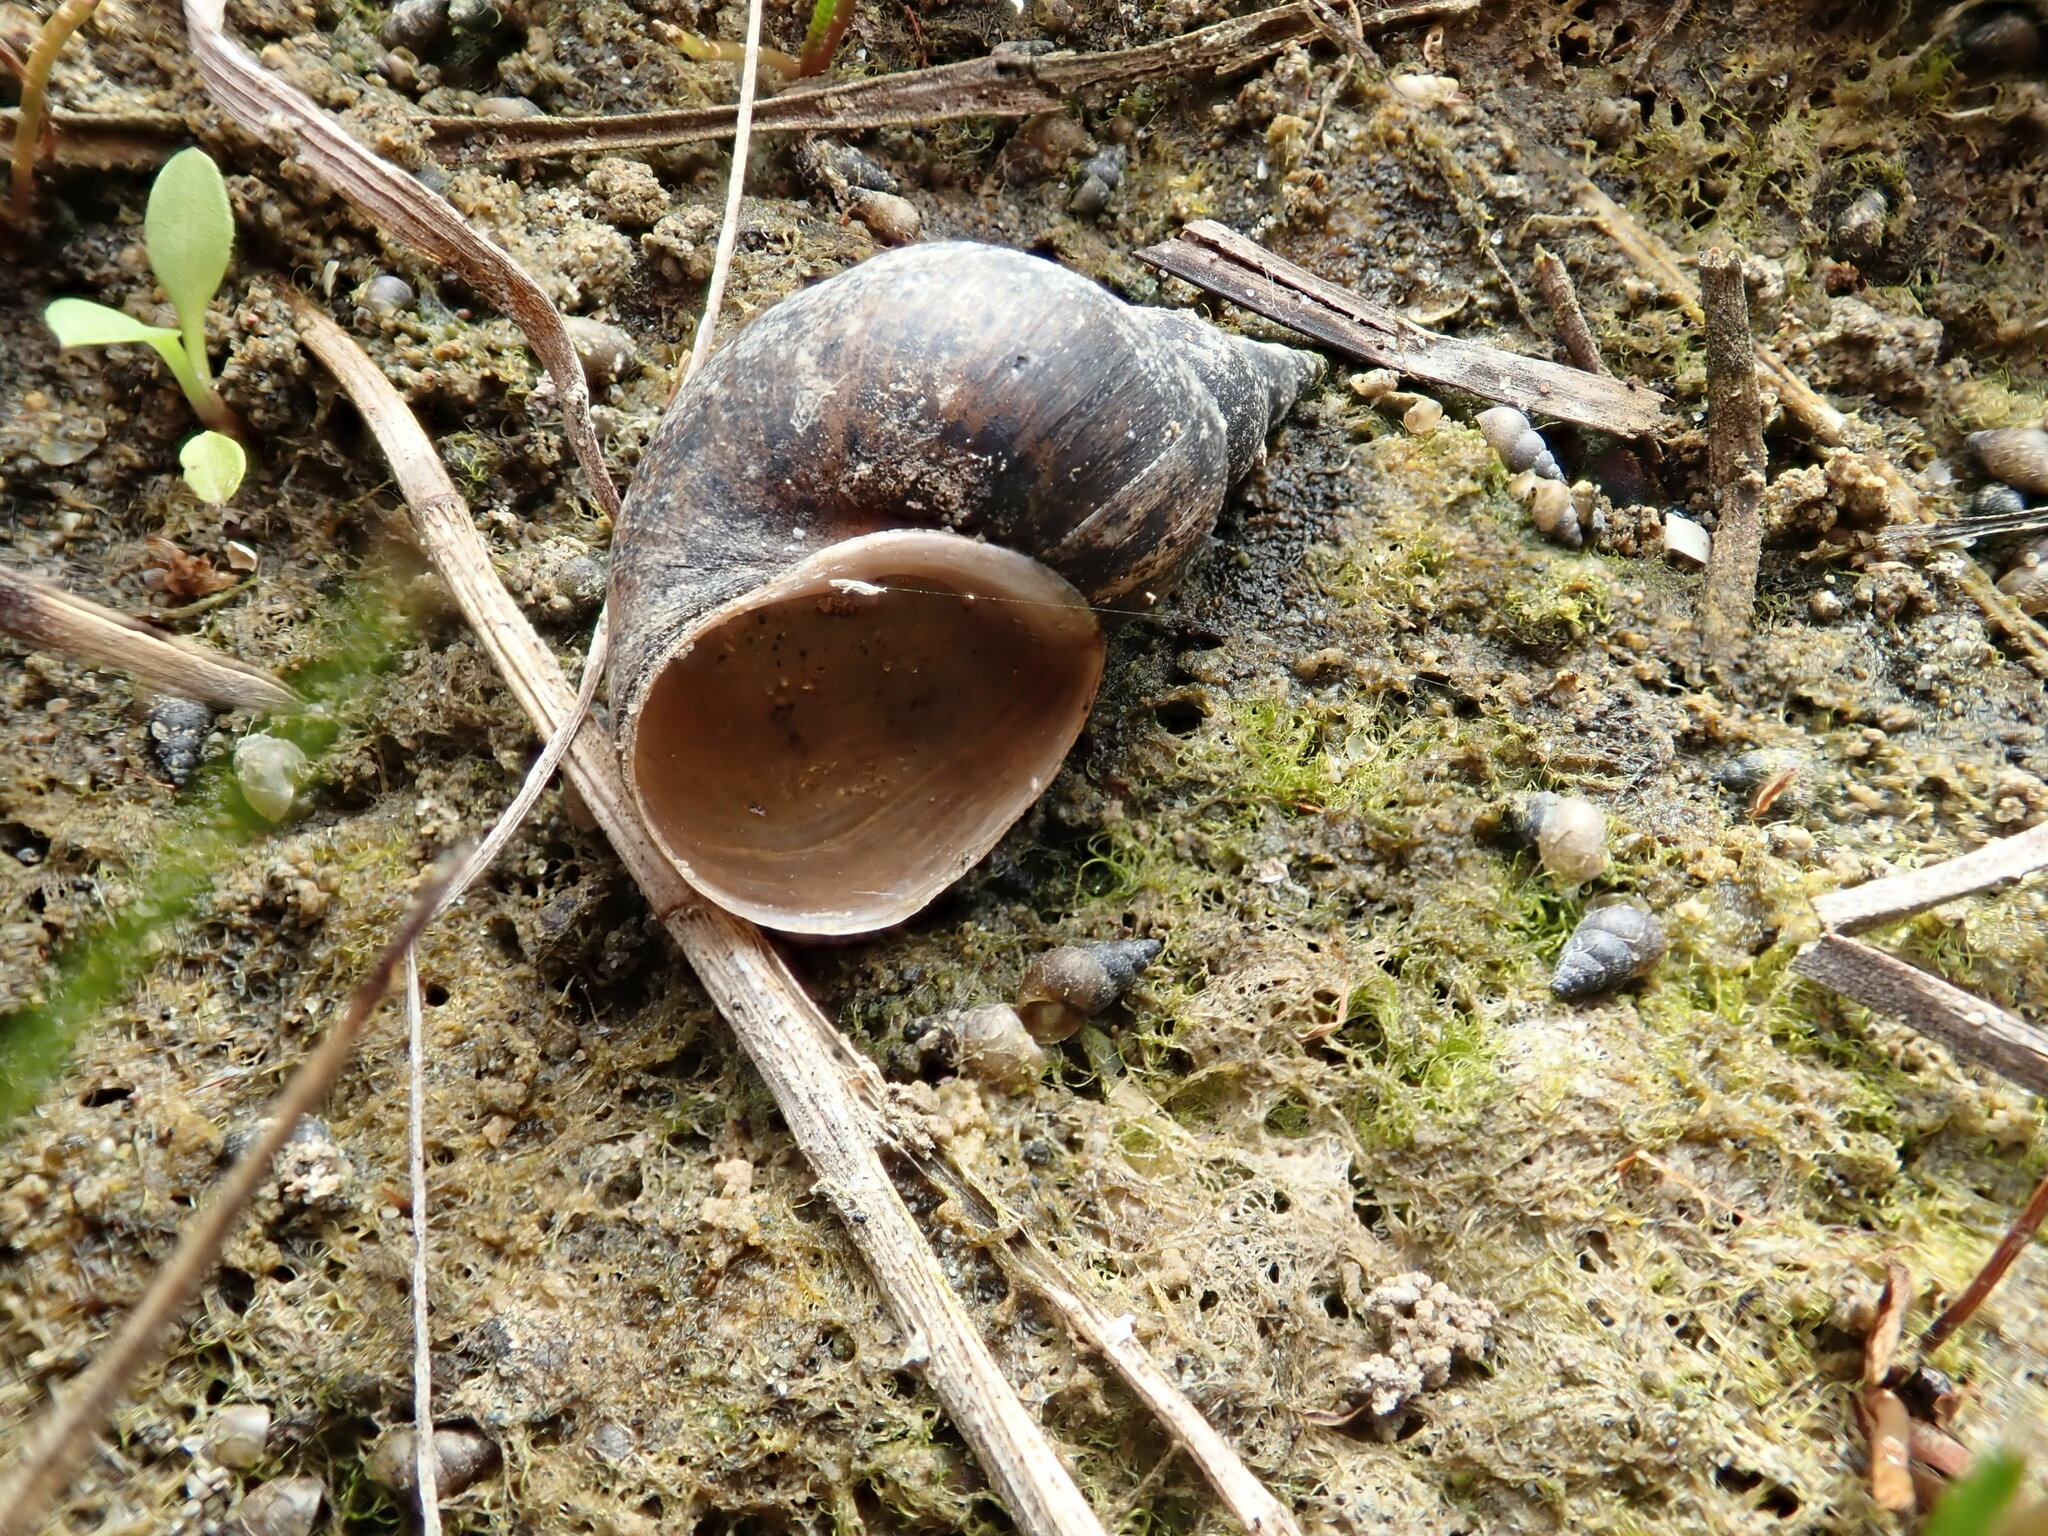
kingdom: Animalia
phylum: Mollusca
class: Gastropoda
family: Lymnaeidae
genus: Lymnaea
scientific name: Lymnaea stagnalis
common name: Great pond snail
